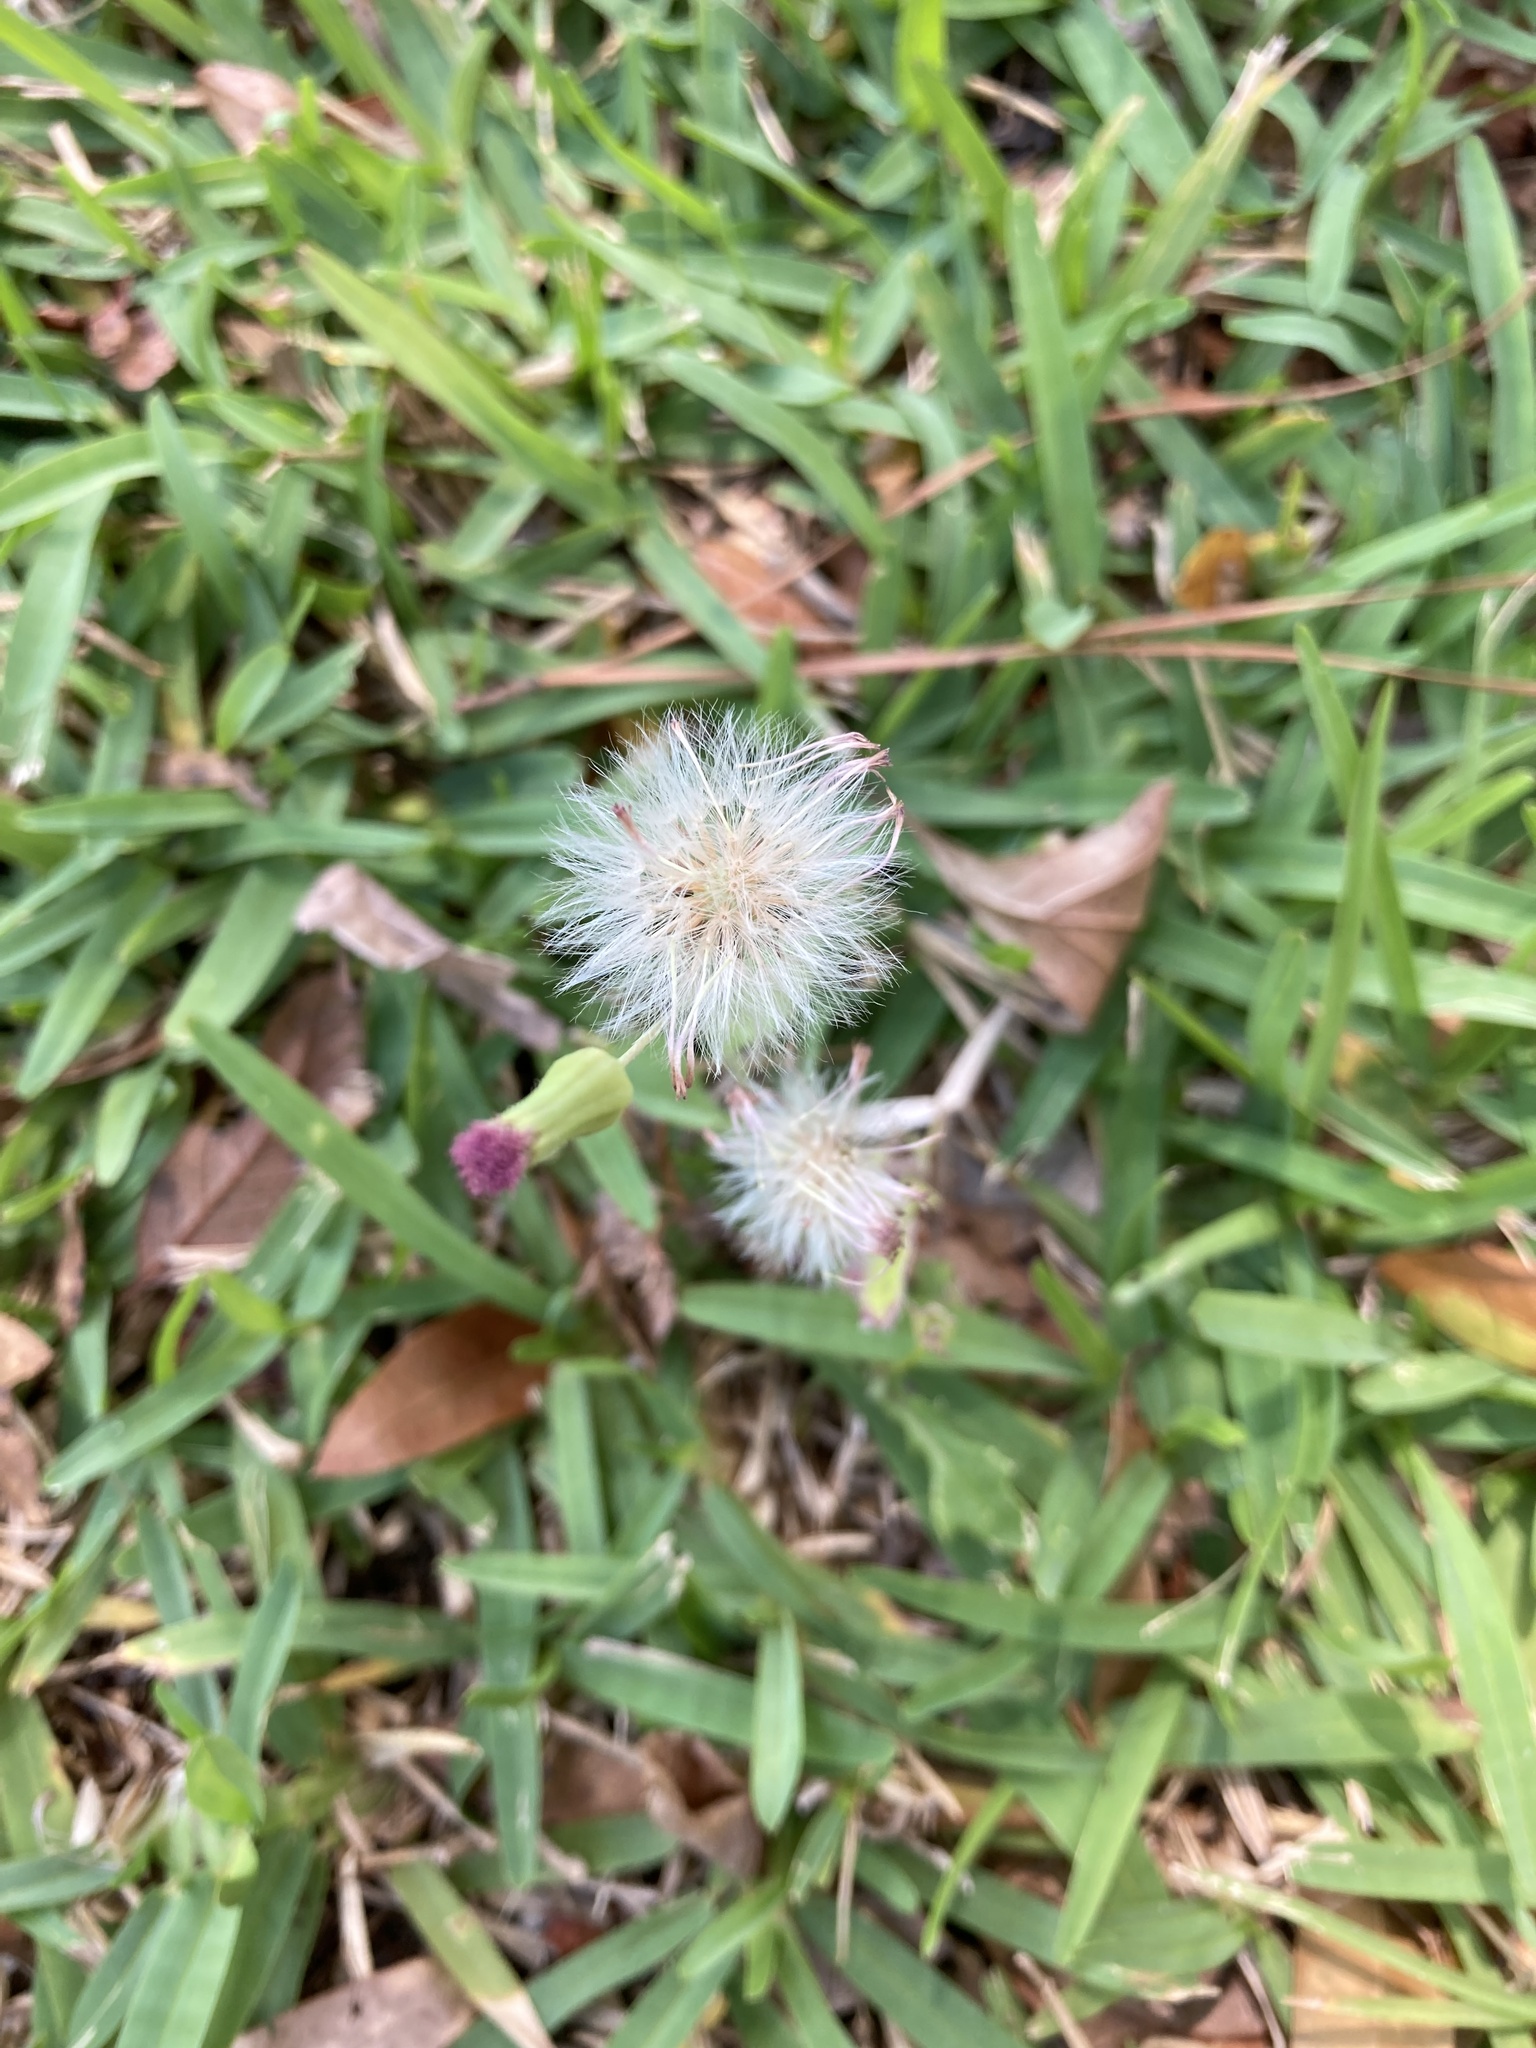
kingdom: Plantae
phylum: Tracheophyta
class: Magnoliopsida
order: Asterales
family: Asteraceae
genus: Emilia
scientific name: Emilia sonchifolia
